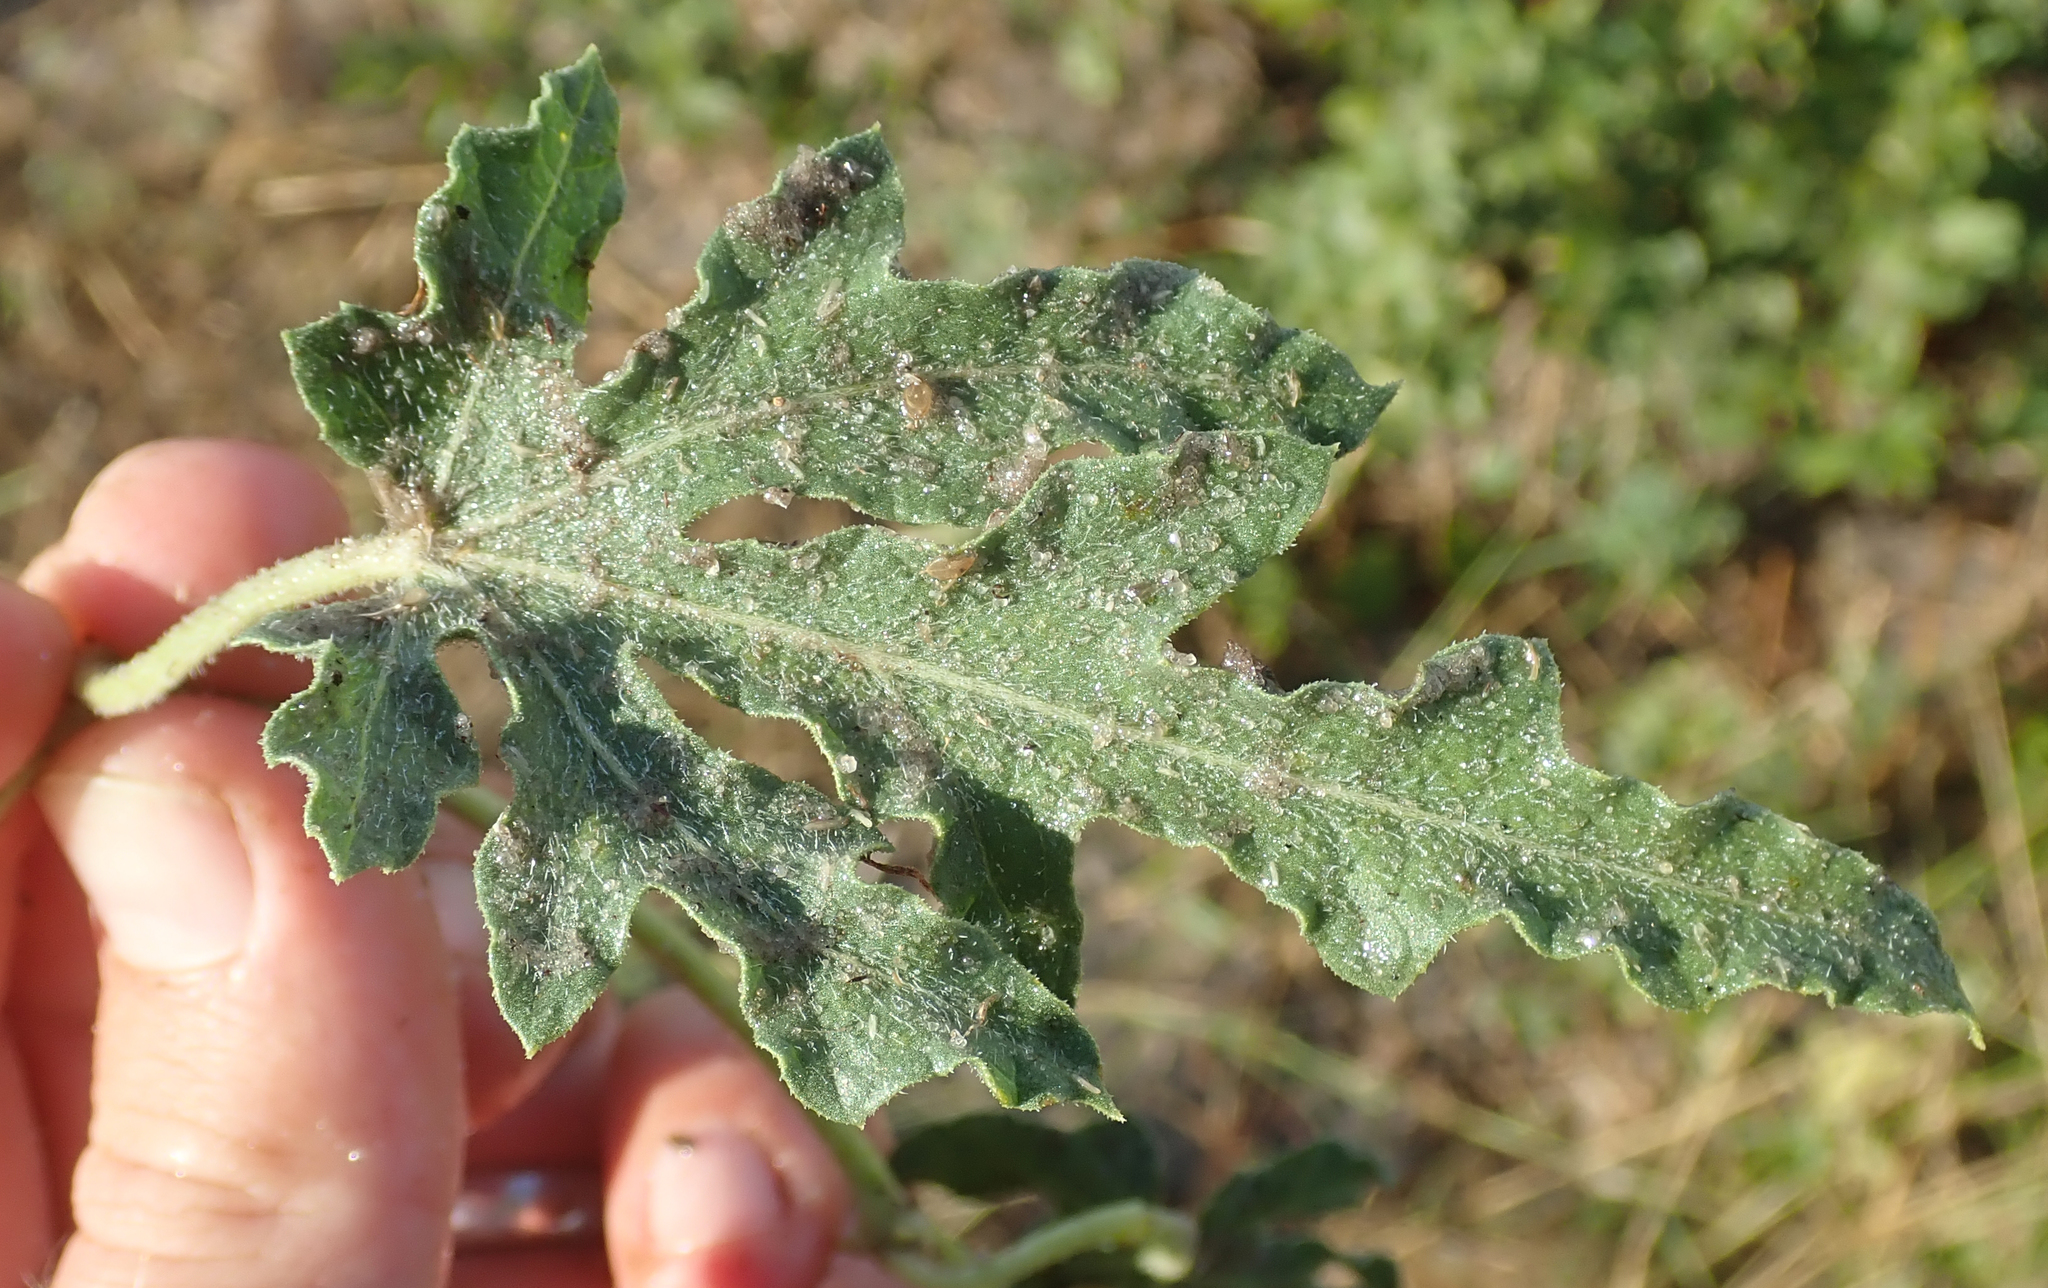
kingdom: Plantae
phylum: Tracheophyta
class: Magnoliopsida
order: Cucurbitales
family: Cucurbitaceae
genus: Citrullus
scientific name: Citrullus naudinianus
